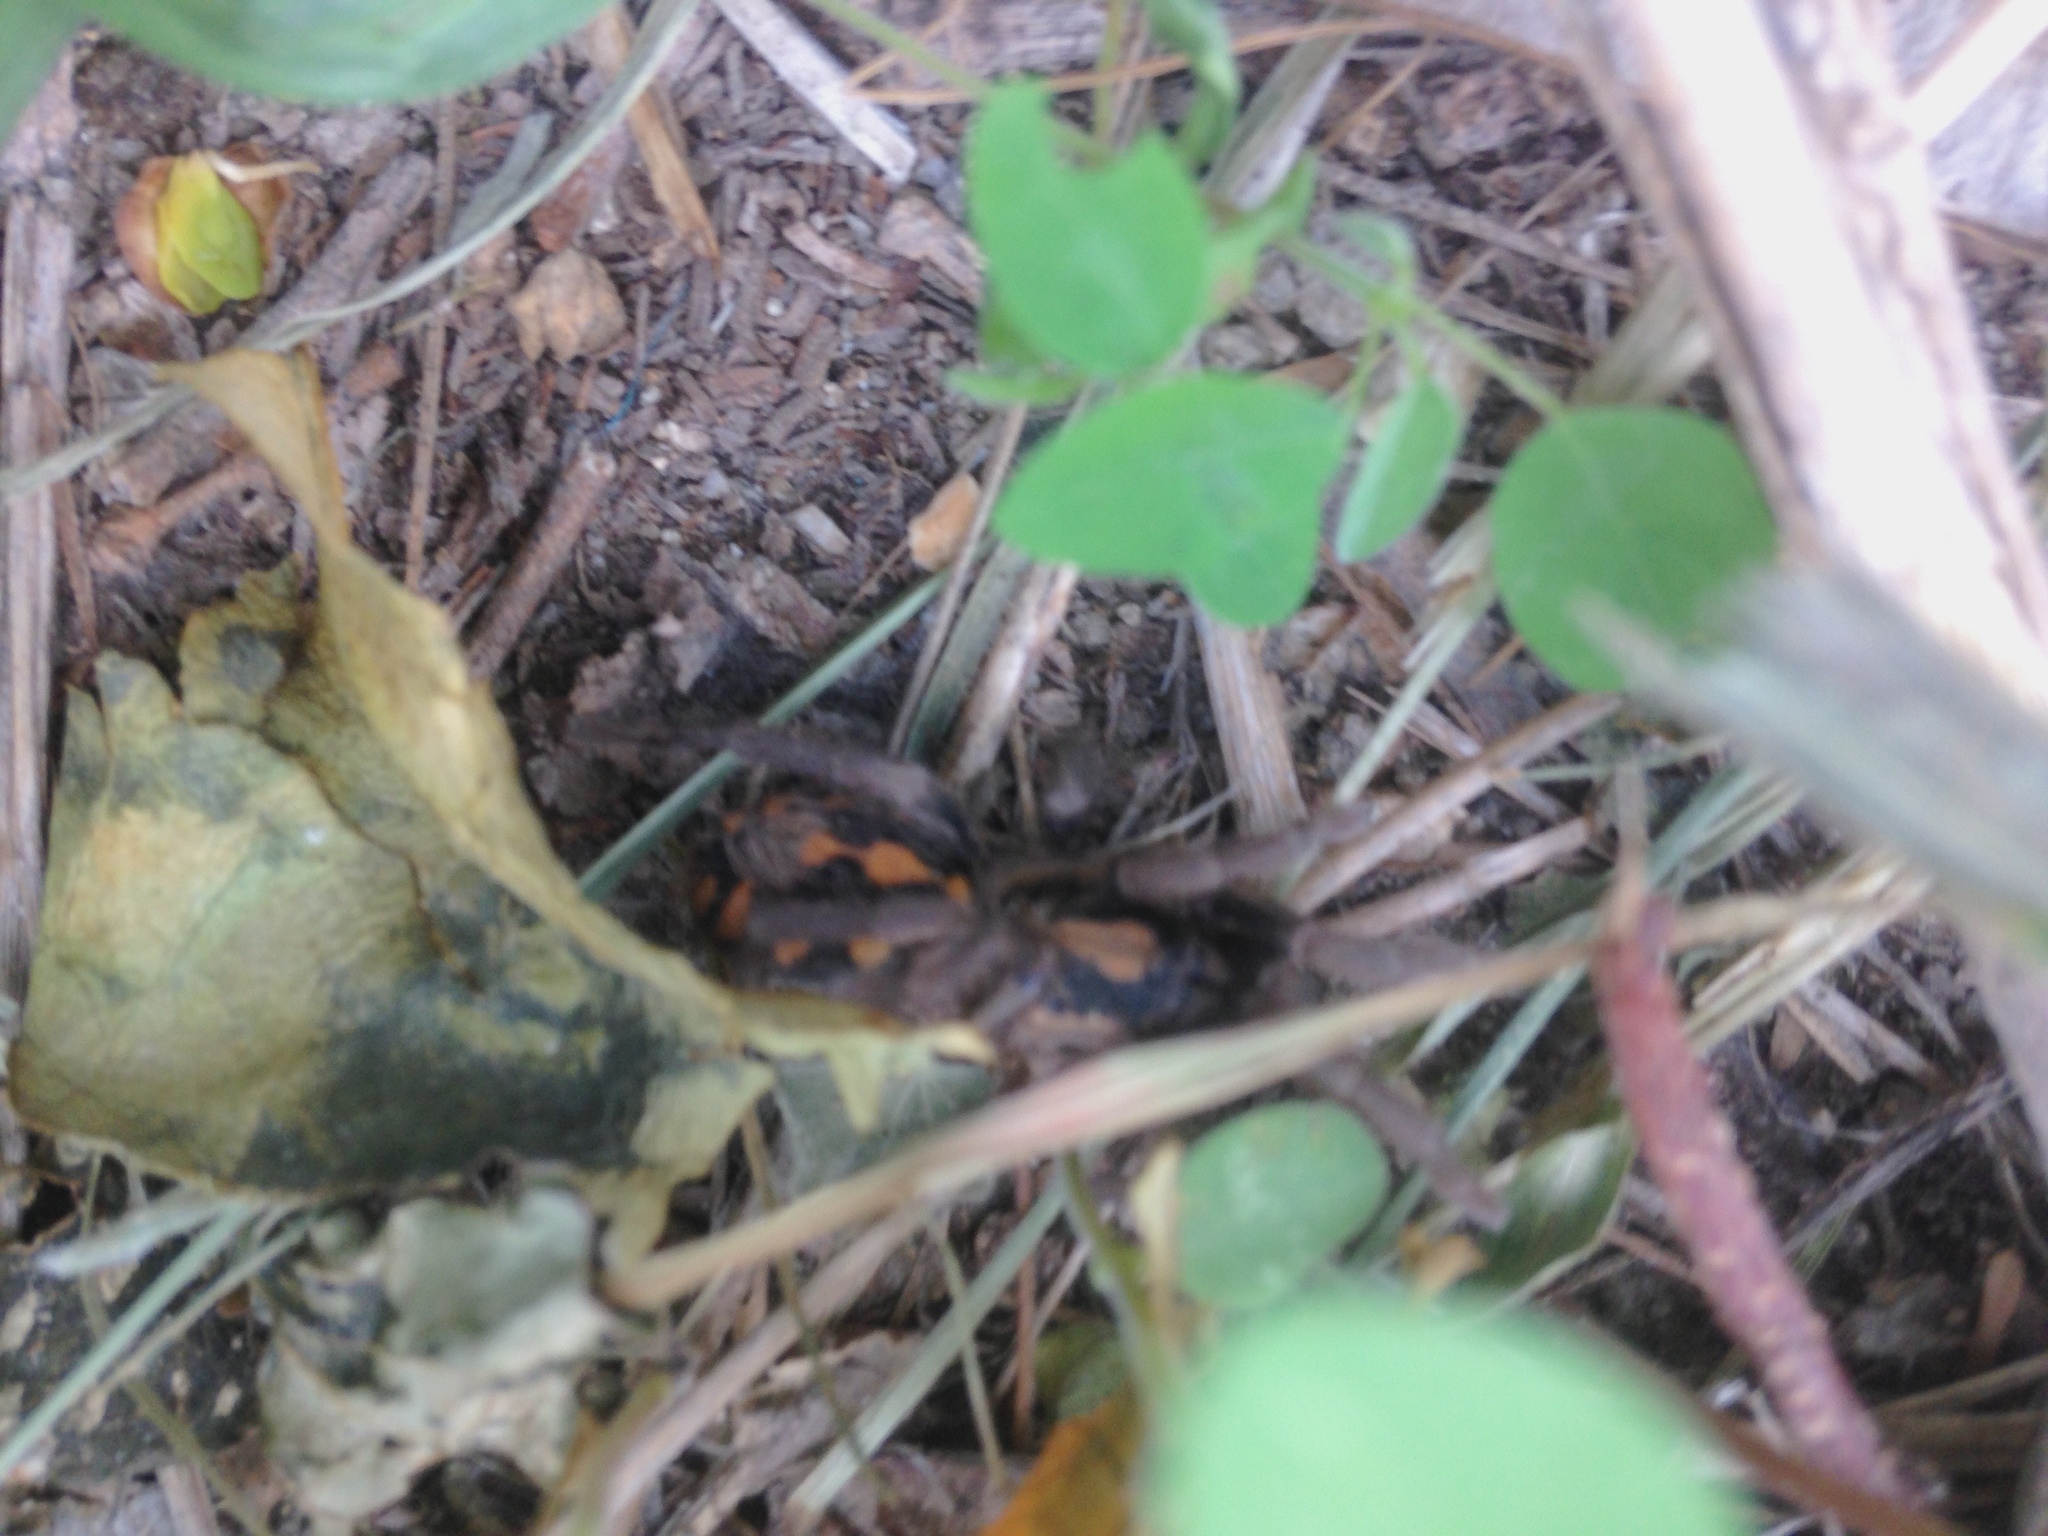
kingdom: Animalia
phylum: Arthropoda
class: Arachnida
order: Araneae
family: Theraphosidae
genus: Hapalopus
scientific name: Hapalopus formosus
